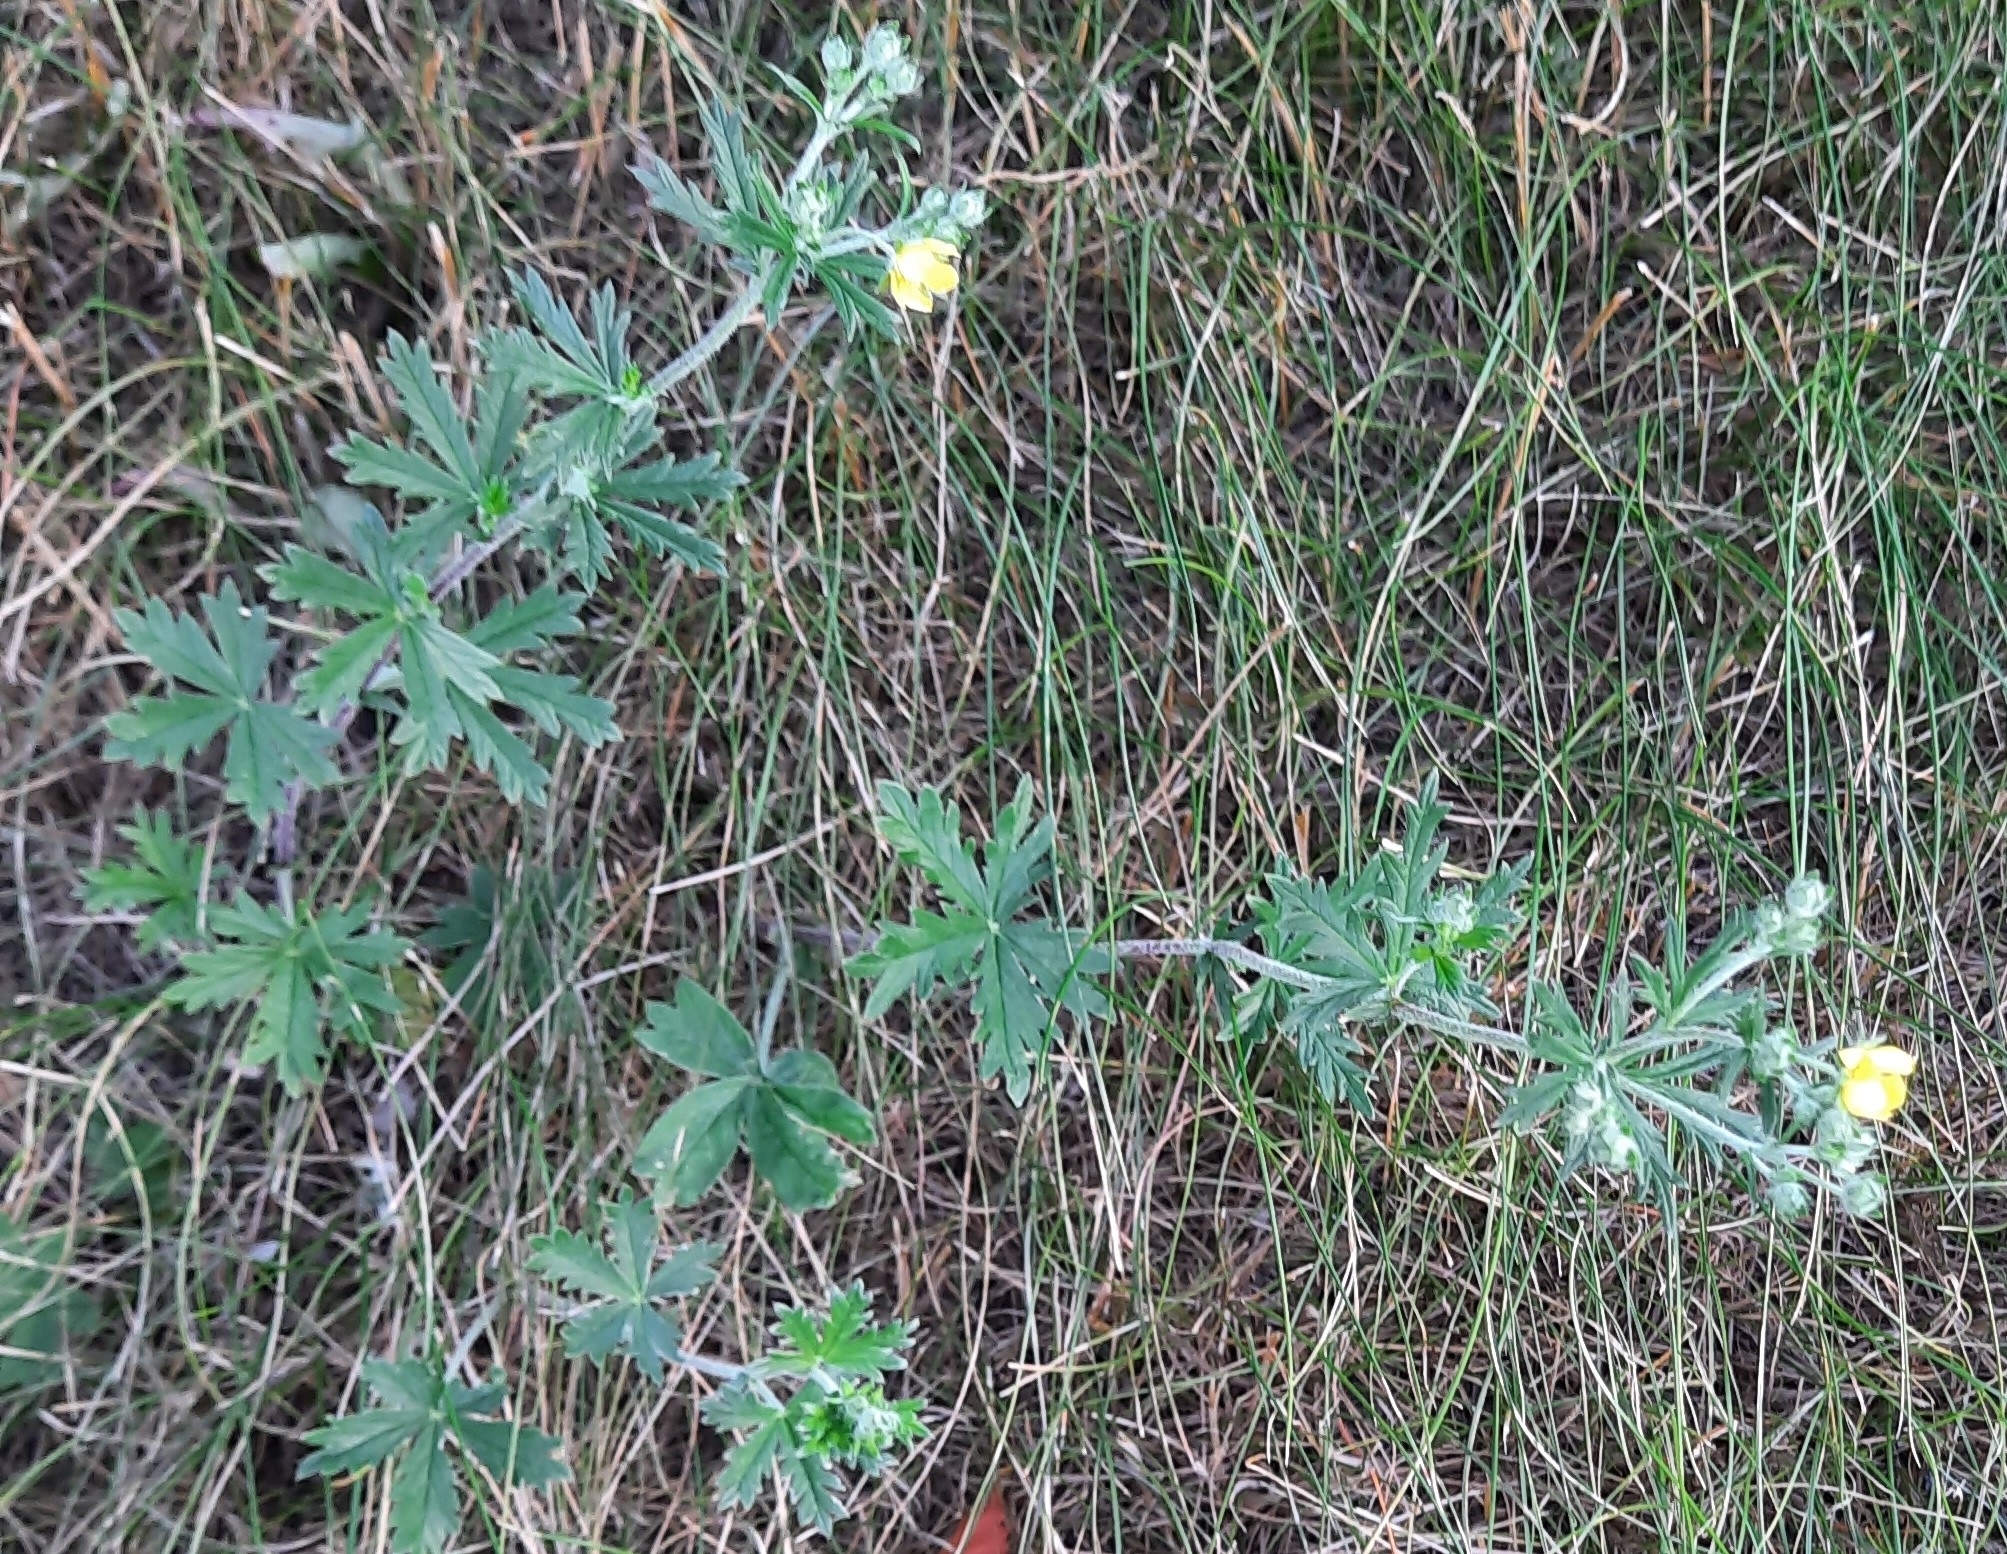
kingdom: Plantae
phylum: Tracheophyta
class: Magnoliopsida
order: Rosales
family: Rosaceae
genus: Potentilla
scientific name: Potentilla argentea
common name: Hoary cinquefoil
